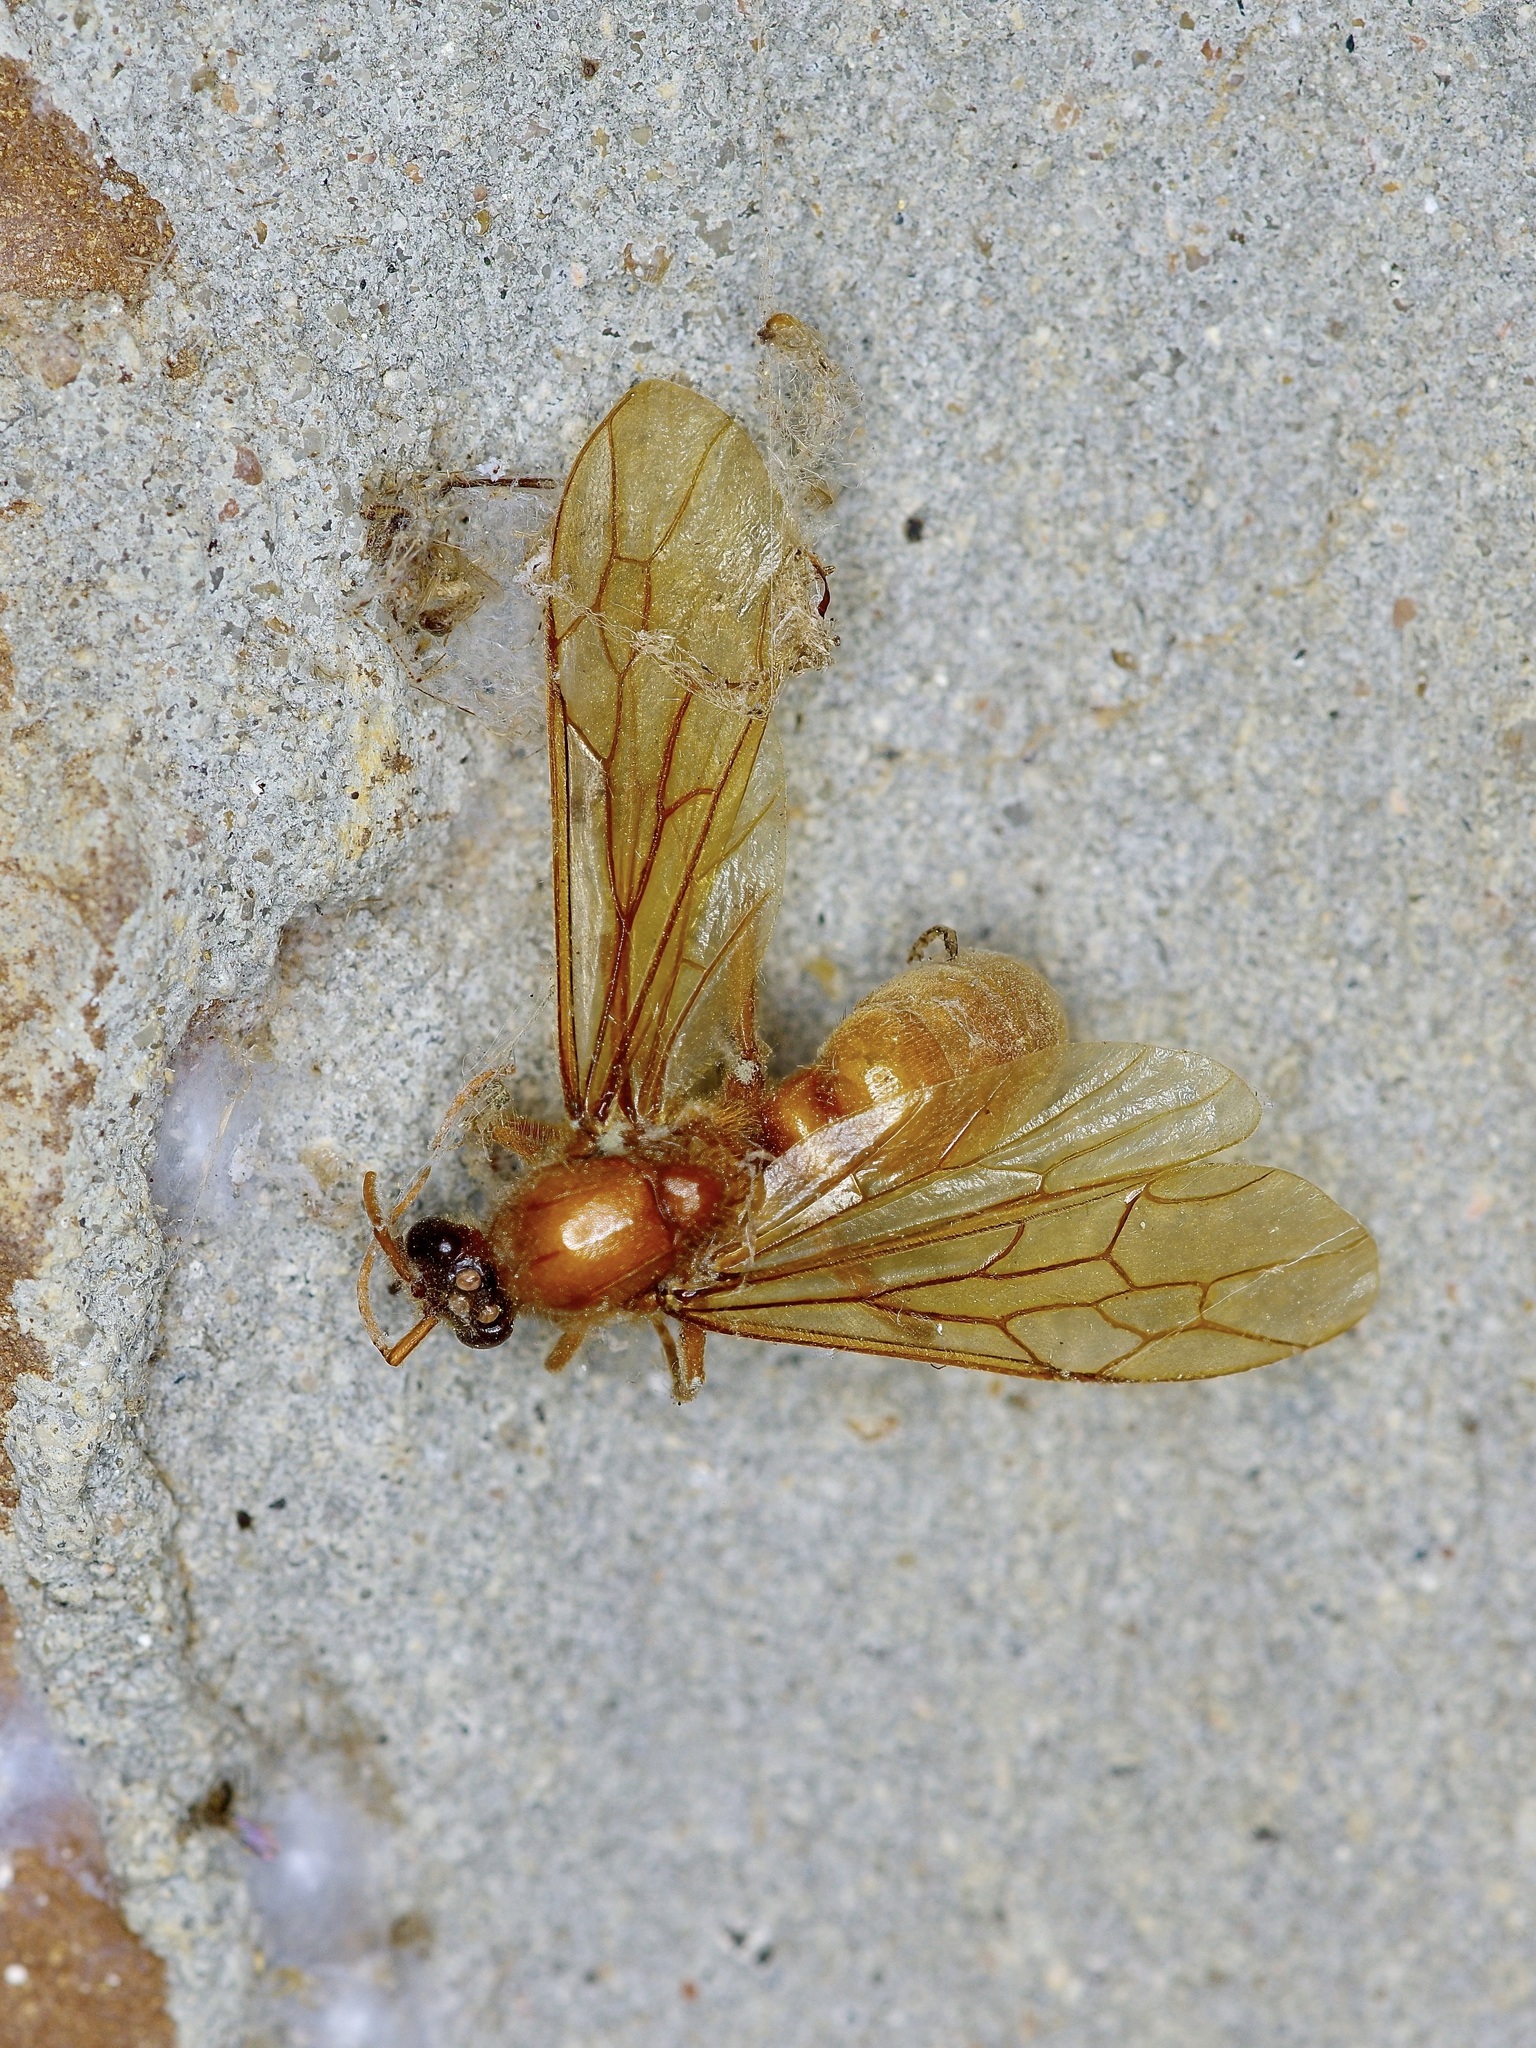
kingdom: Animalia
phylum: Arthropoda
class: Insecta
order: Hymenoptera
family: Formicidae
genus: Labidus
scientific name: Labidus coecus
